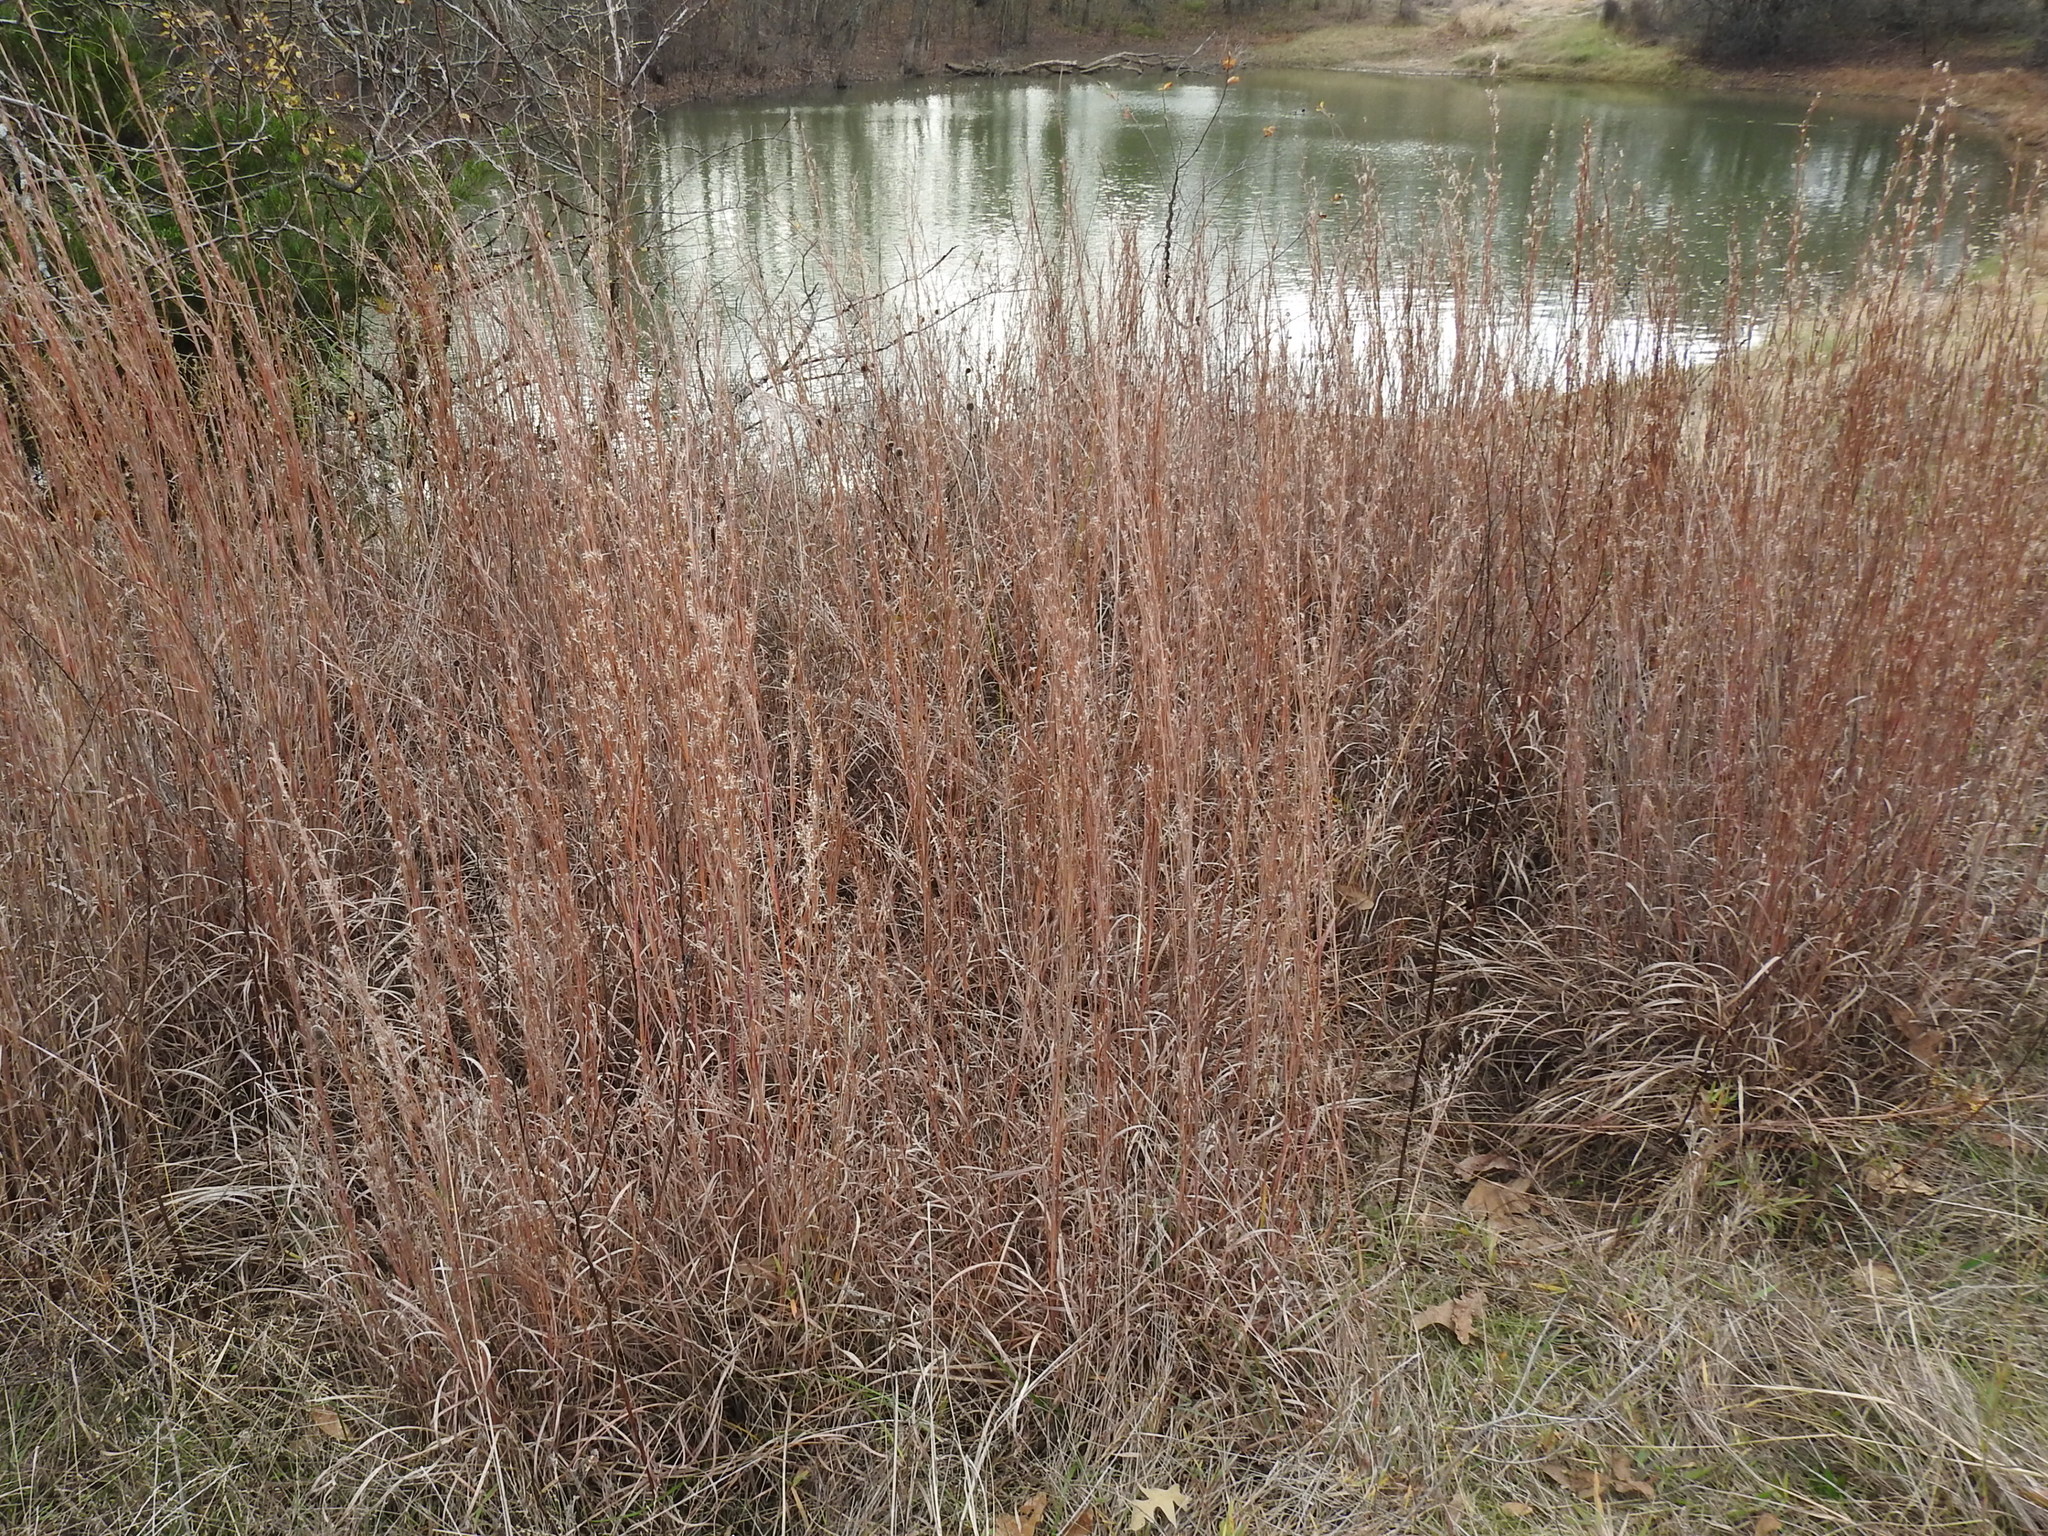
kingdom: Plantae
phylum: Tracheophyta
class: Liliopsida
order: Poales
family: Poaceae
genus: Schizachyrium
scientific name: Schizachyrium scoparium
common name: Little bluestem
